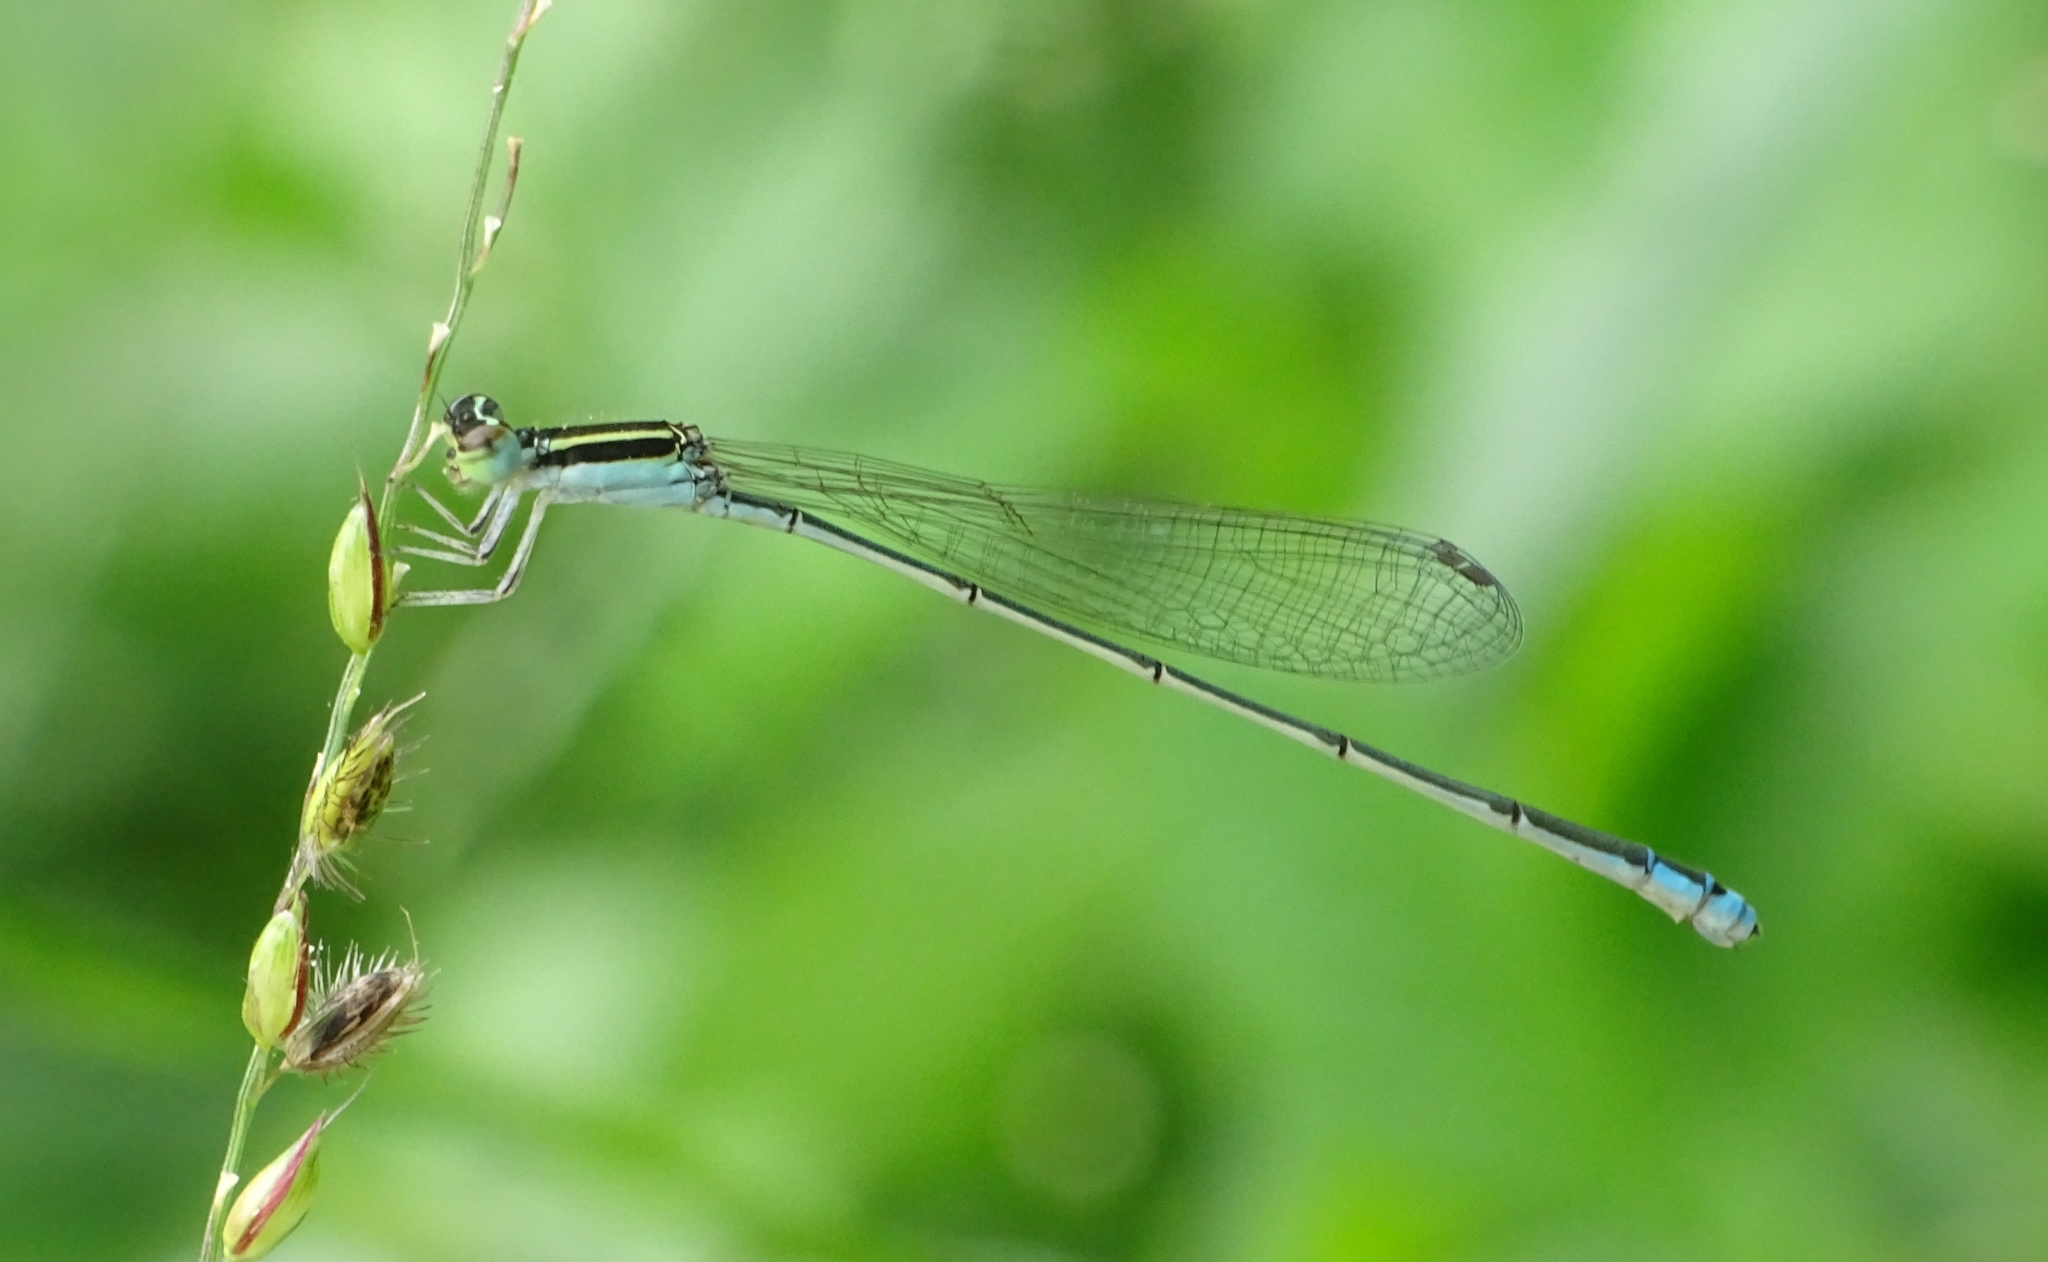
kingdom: Animalia
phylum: Arthropoda
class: Insecta
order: Odonata
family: Coenagrionidae
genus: Aciagrion
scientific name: Aciagrion occidentale
